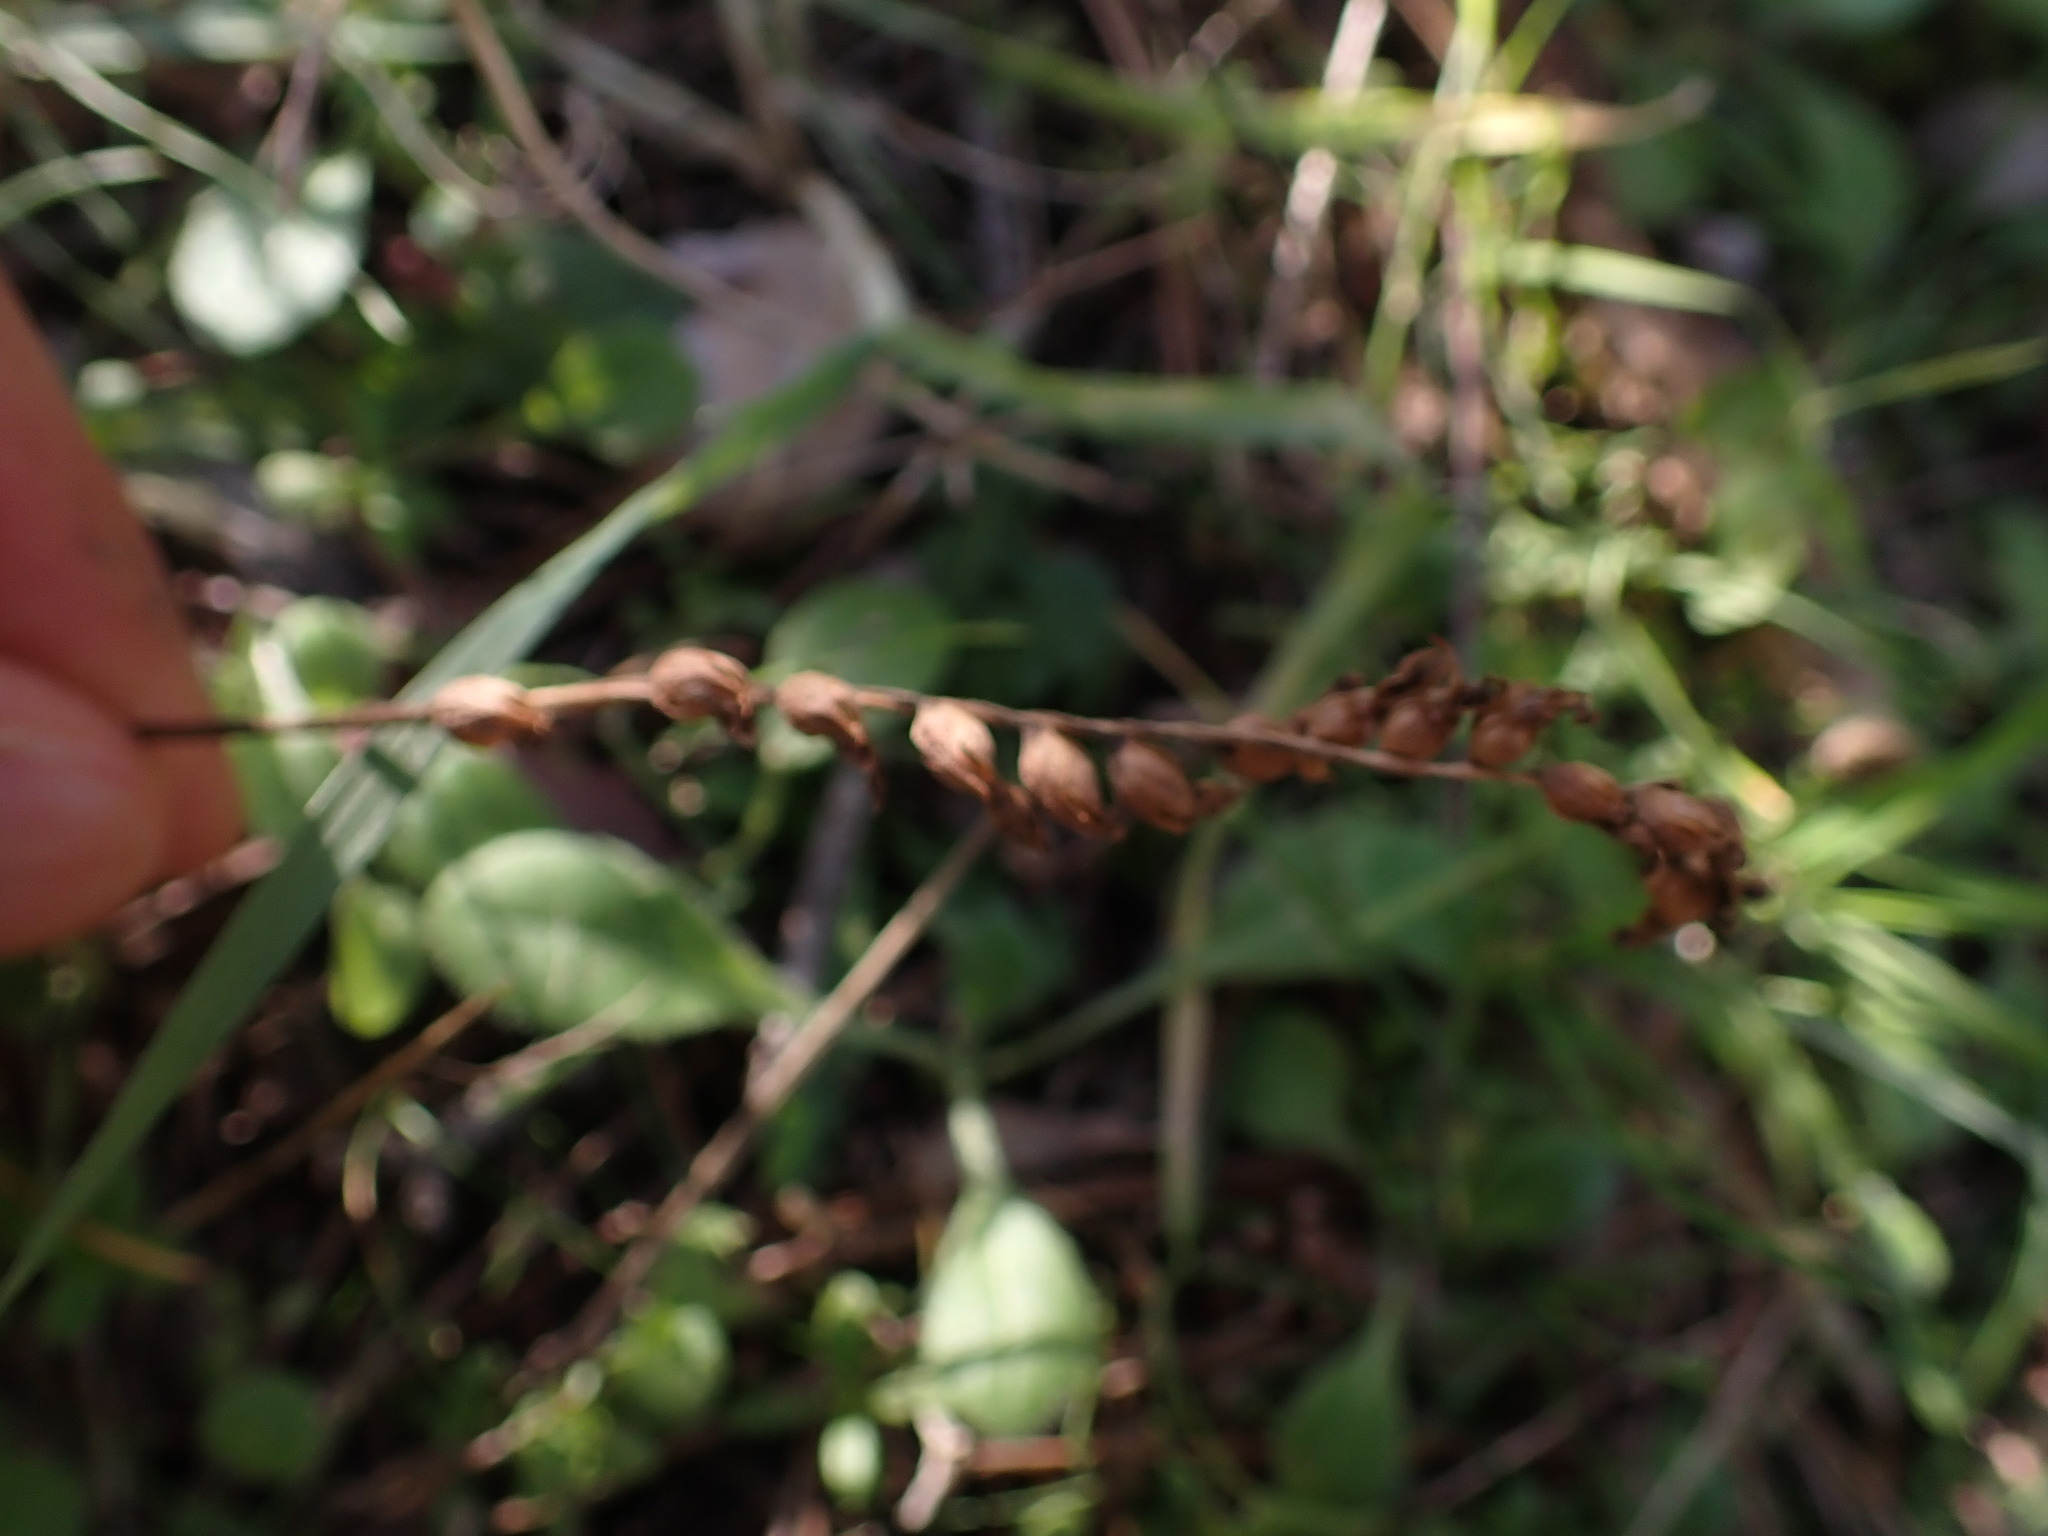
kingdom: Plantae
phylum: Tracheophyta
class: Liliopsida
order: Asparagales
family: Orchidaceae
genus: Spiranthes
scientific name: Spiranthes spiralis
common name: Autumn lady's-tresses
